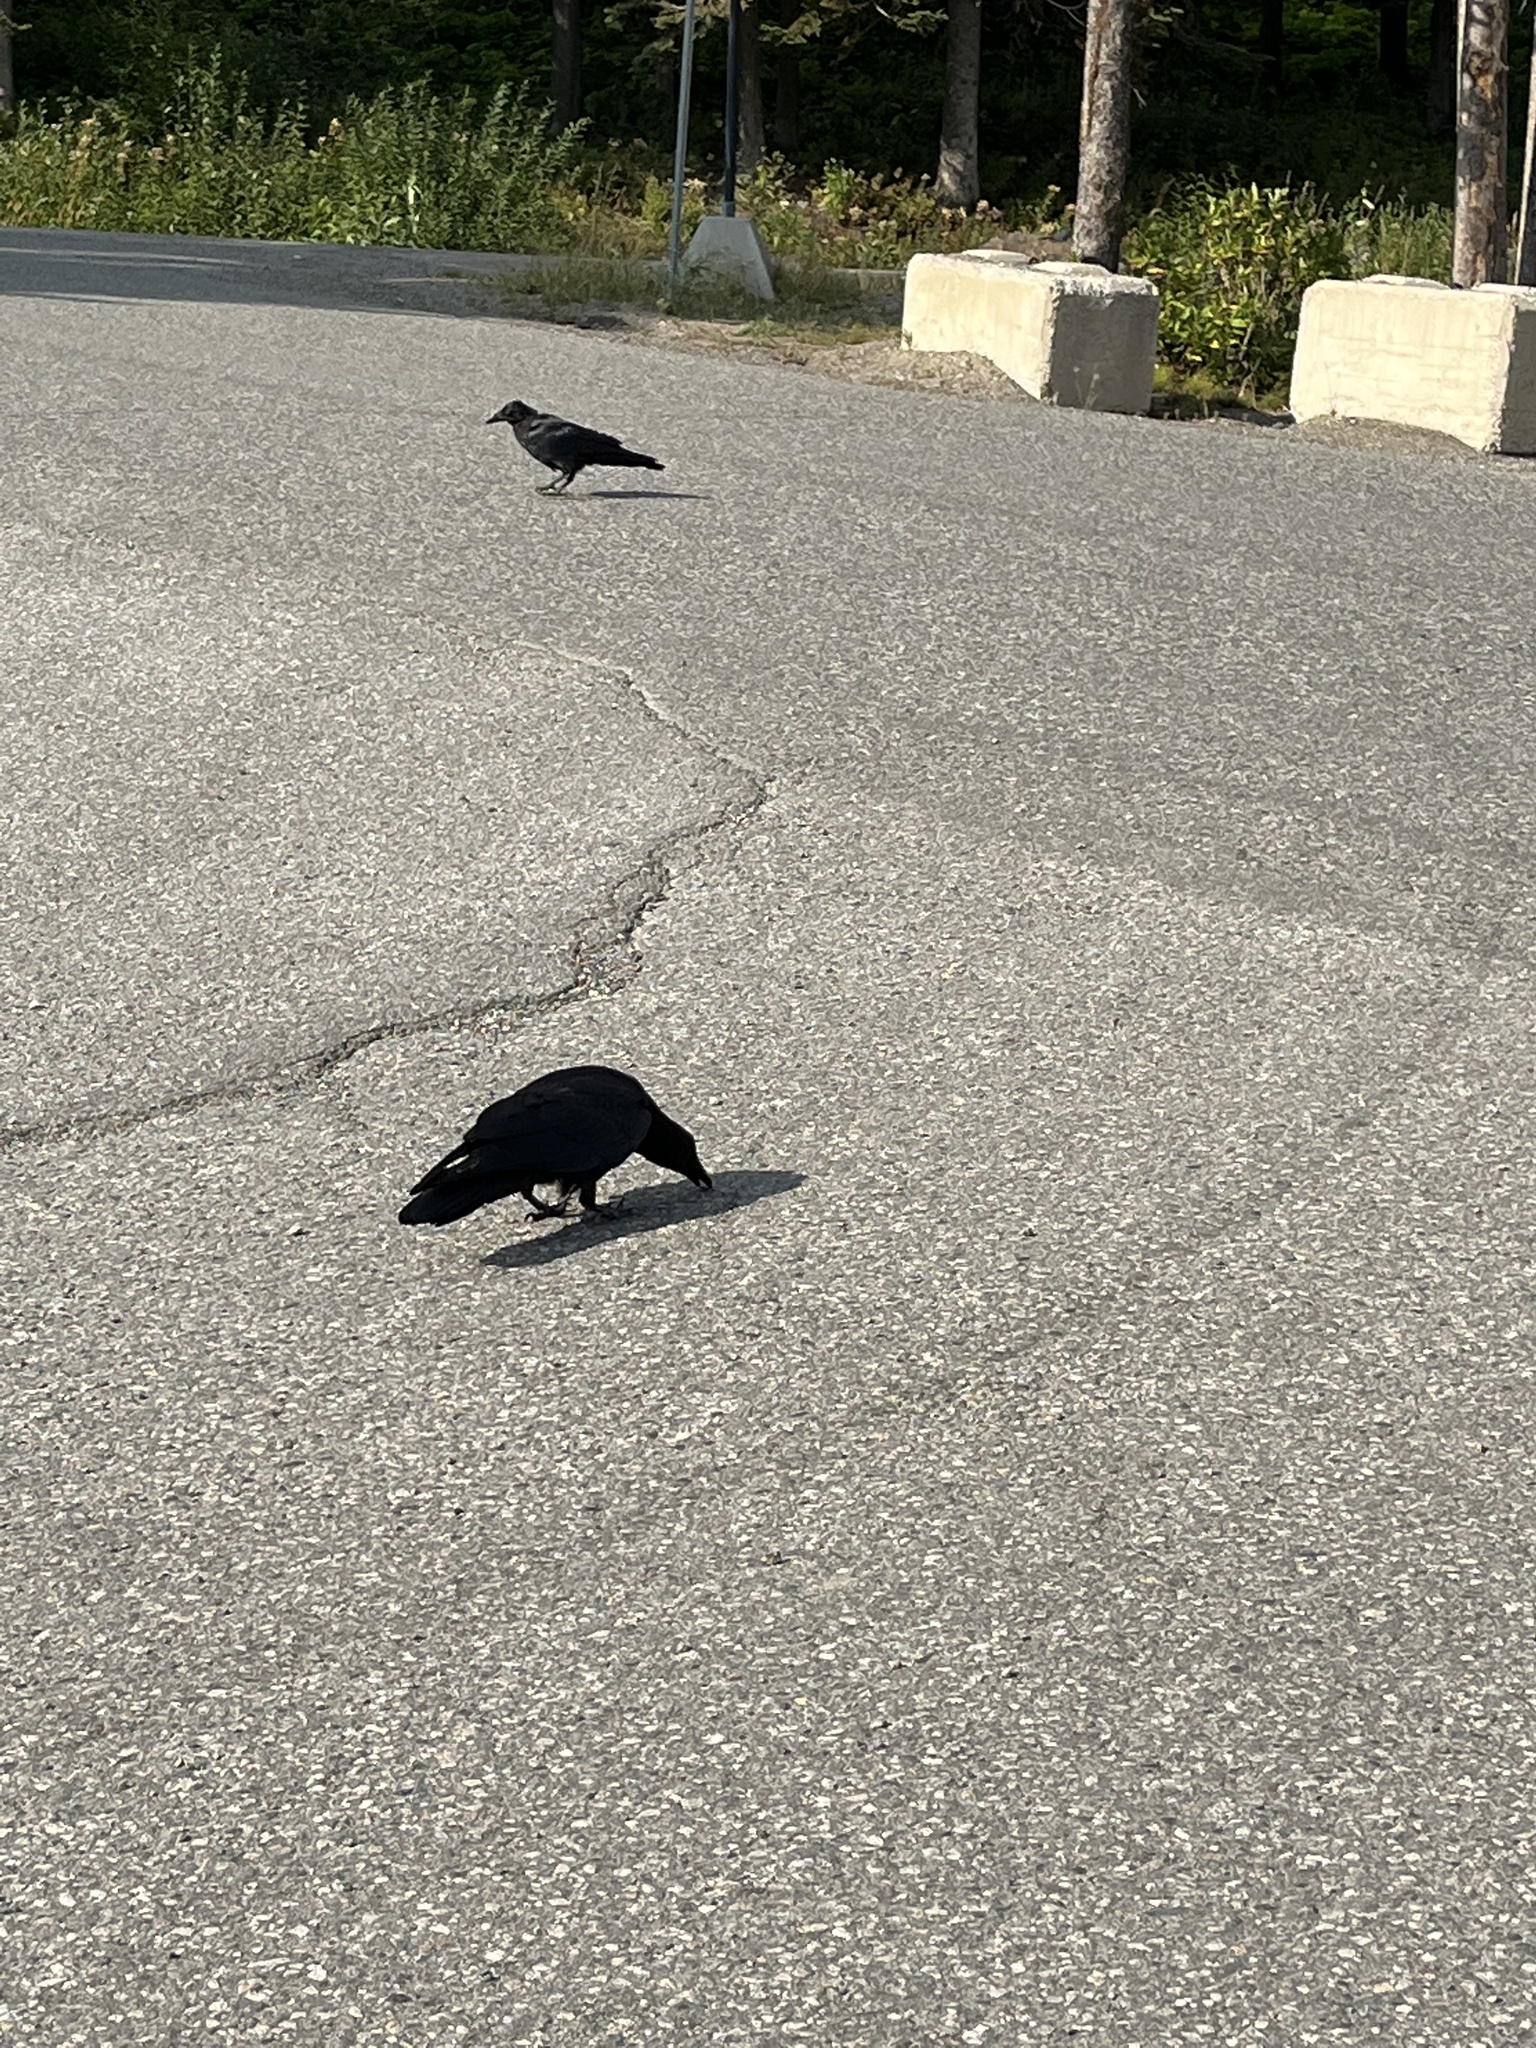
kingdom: Animalia
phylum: Chordata
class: Aves
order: Passeriformes
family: Corvidae
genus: Corvus
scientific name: Corvus corax
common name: Common raven
